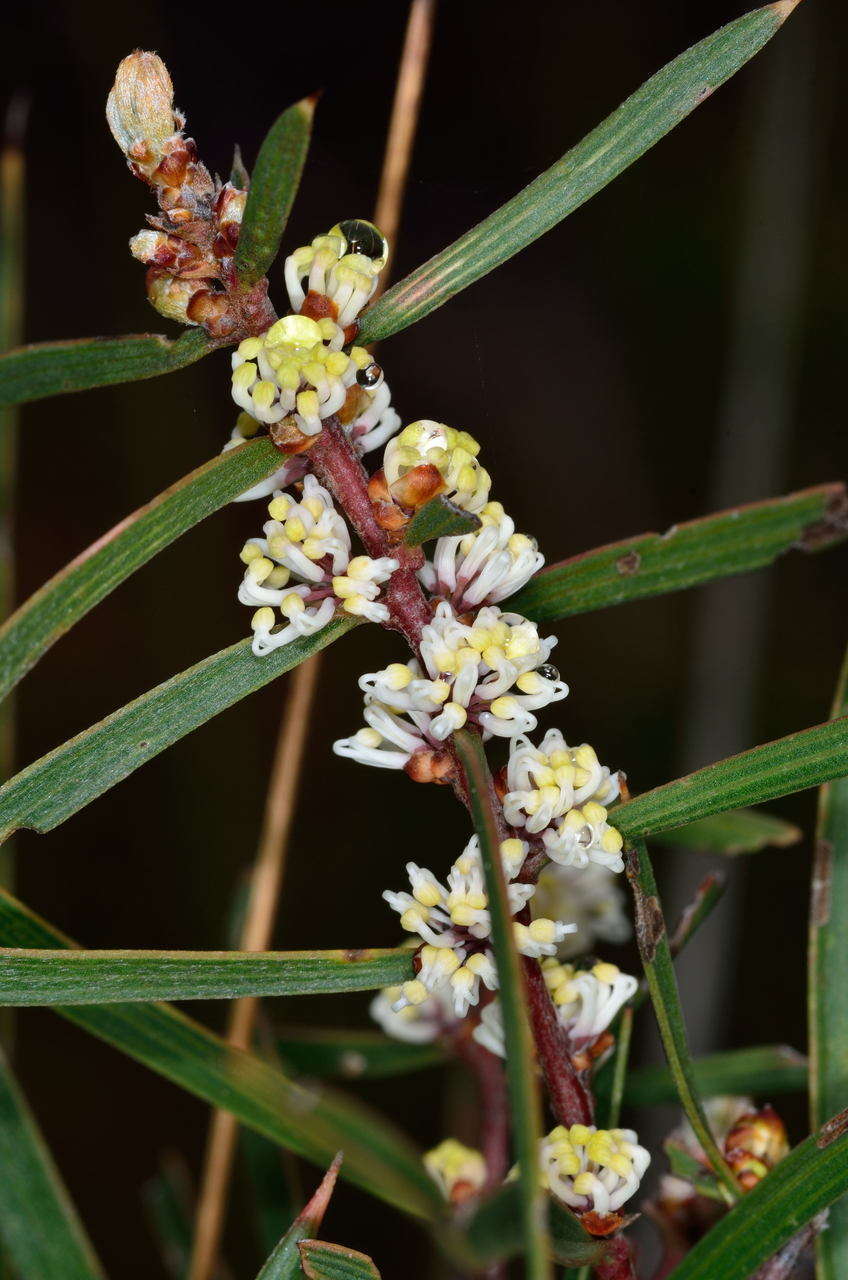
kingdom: Plantae
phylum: Tracheophyta
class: Magnoliopsida
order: Proteales
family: Proteaceae
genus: Hakea
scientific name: Hakea ulicina
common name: Furze hakea
